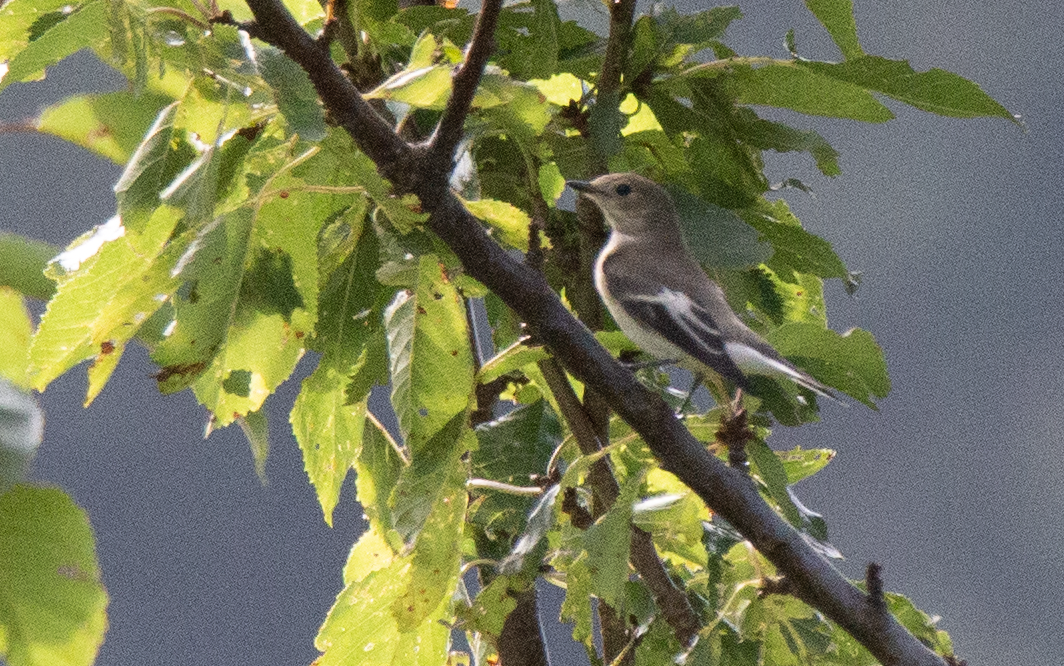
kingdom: Animalia
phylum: Chordata
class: Aves
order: Passeriformes
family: Muscicapidae
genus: Ficedula
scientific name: Ficedula hypoleuca
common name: European pied flycatcher
